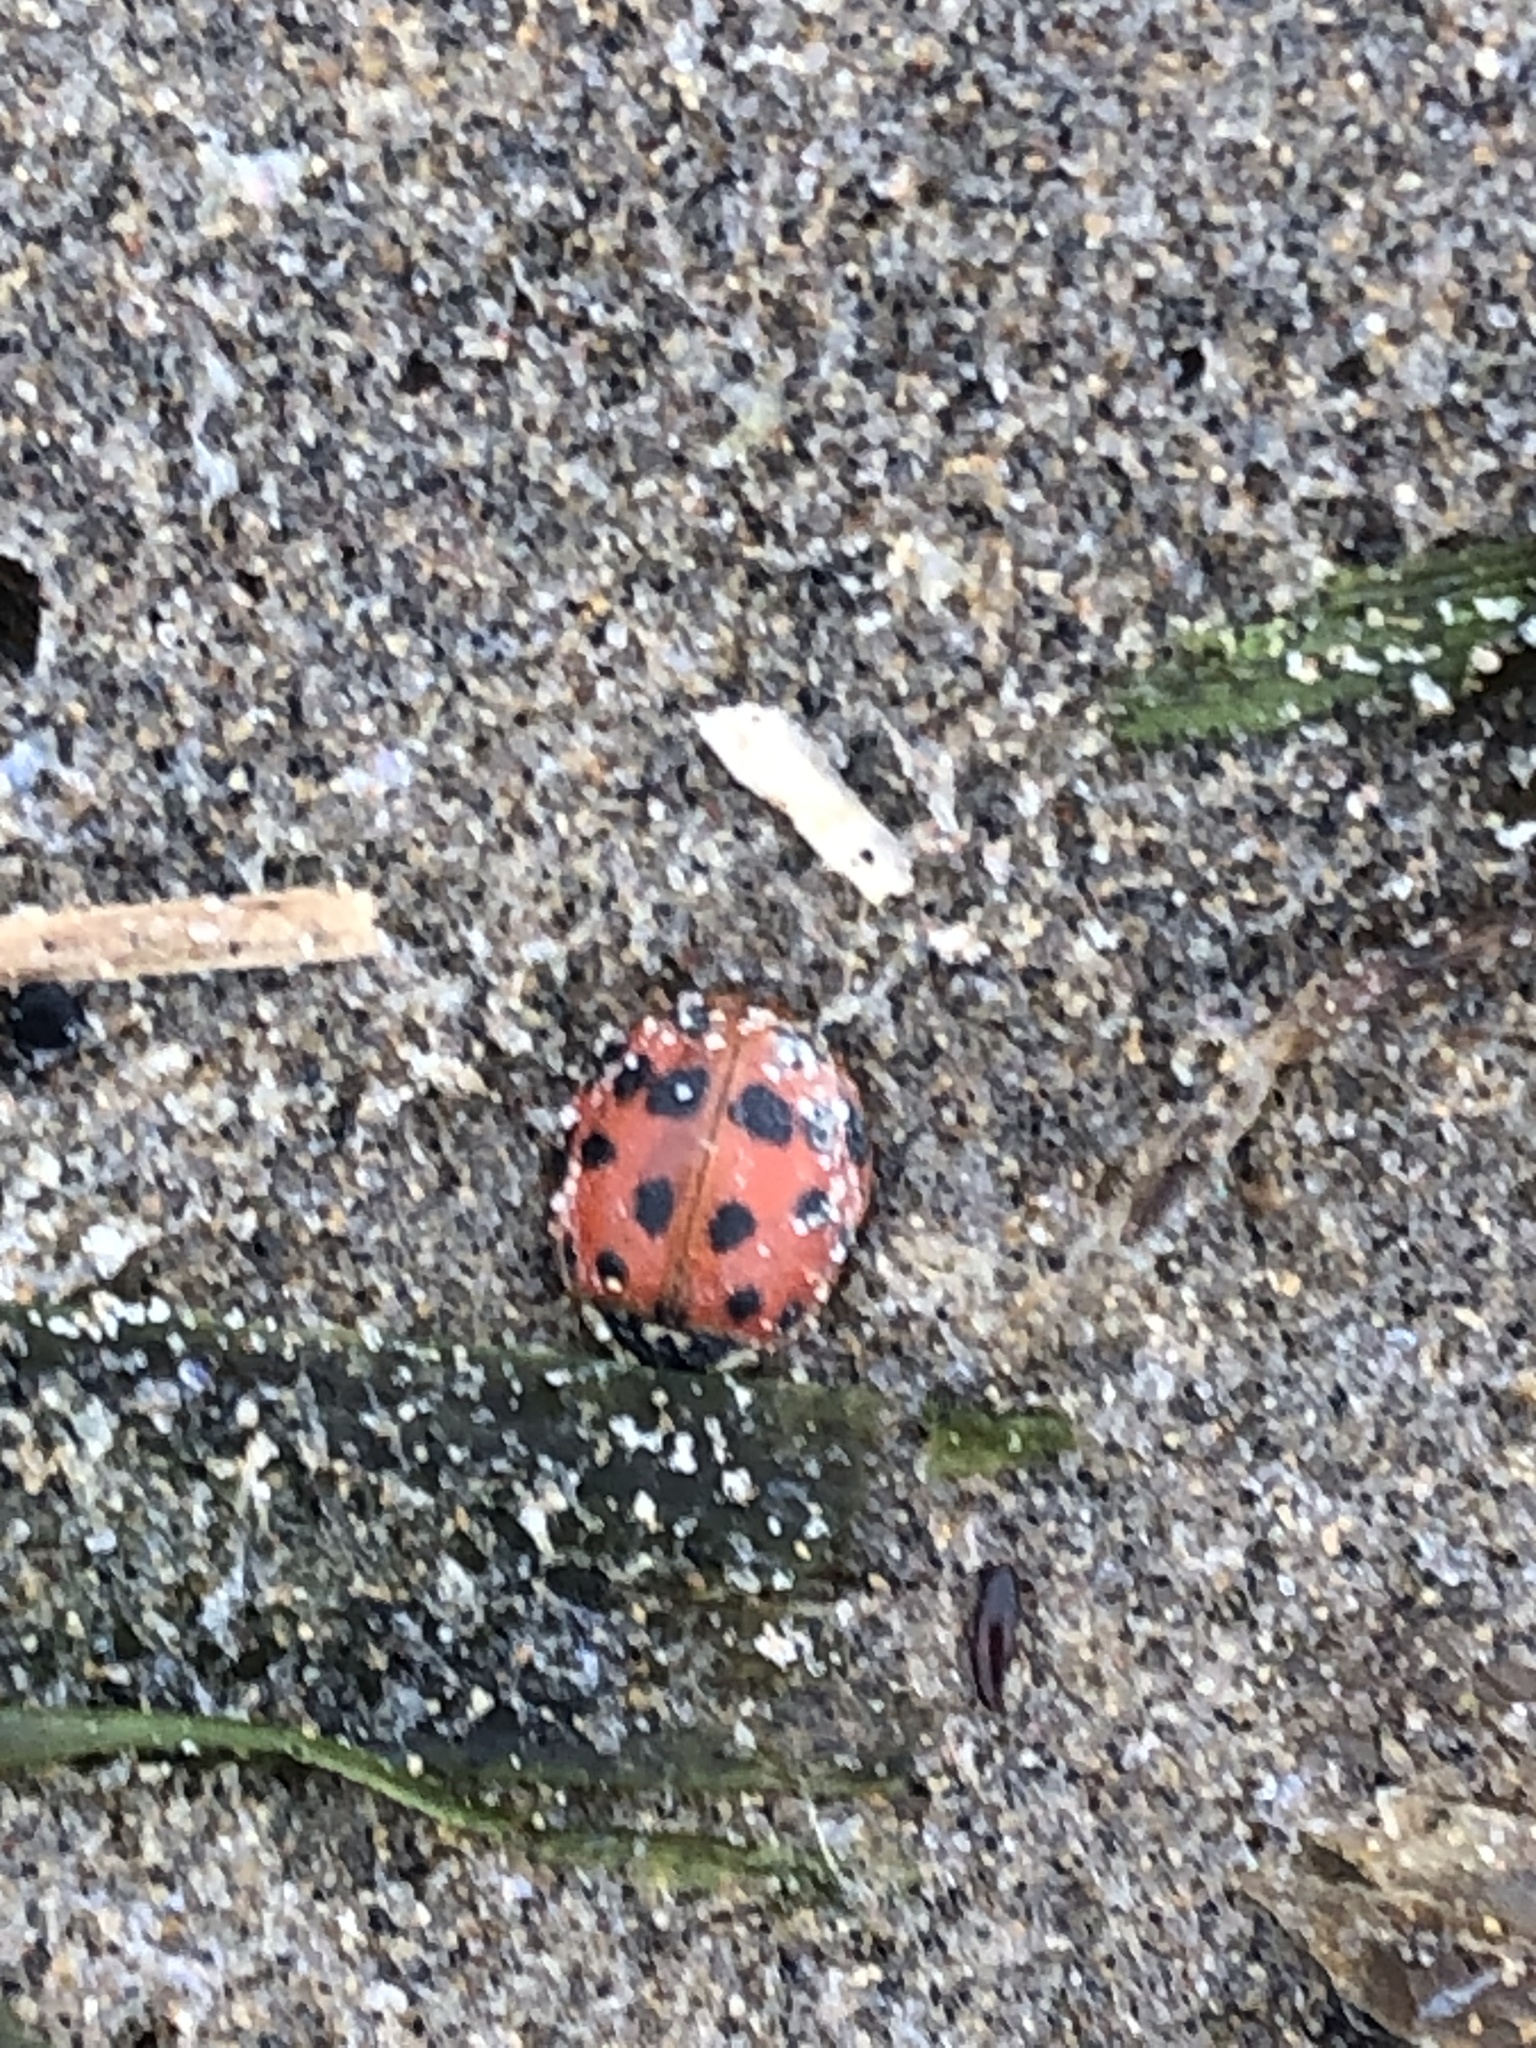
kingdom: Animalia
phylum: Arthropoda
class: Insecta
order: Coleoptera
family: Coccinellidae
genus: Harmonia
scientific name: Harmonia axyridis
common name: Harlequin ladybird
